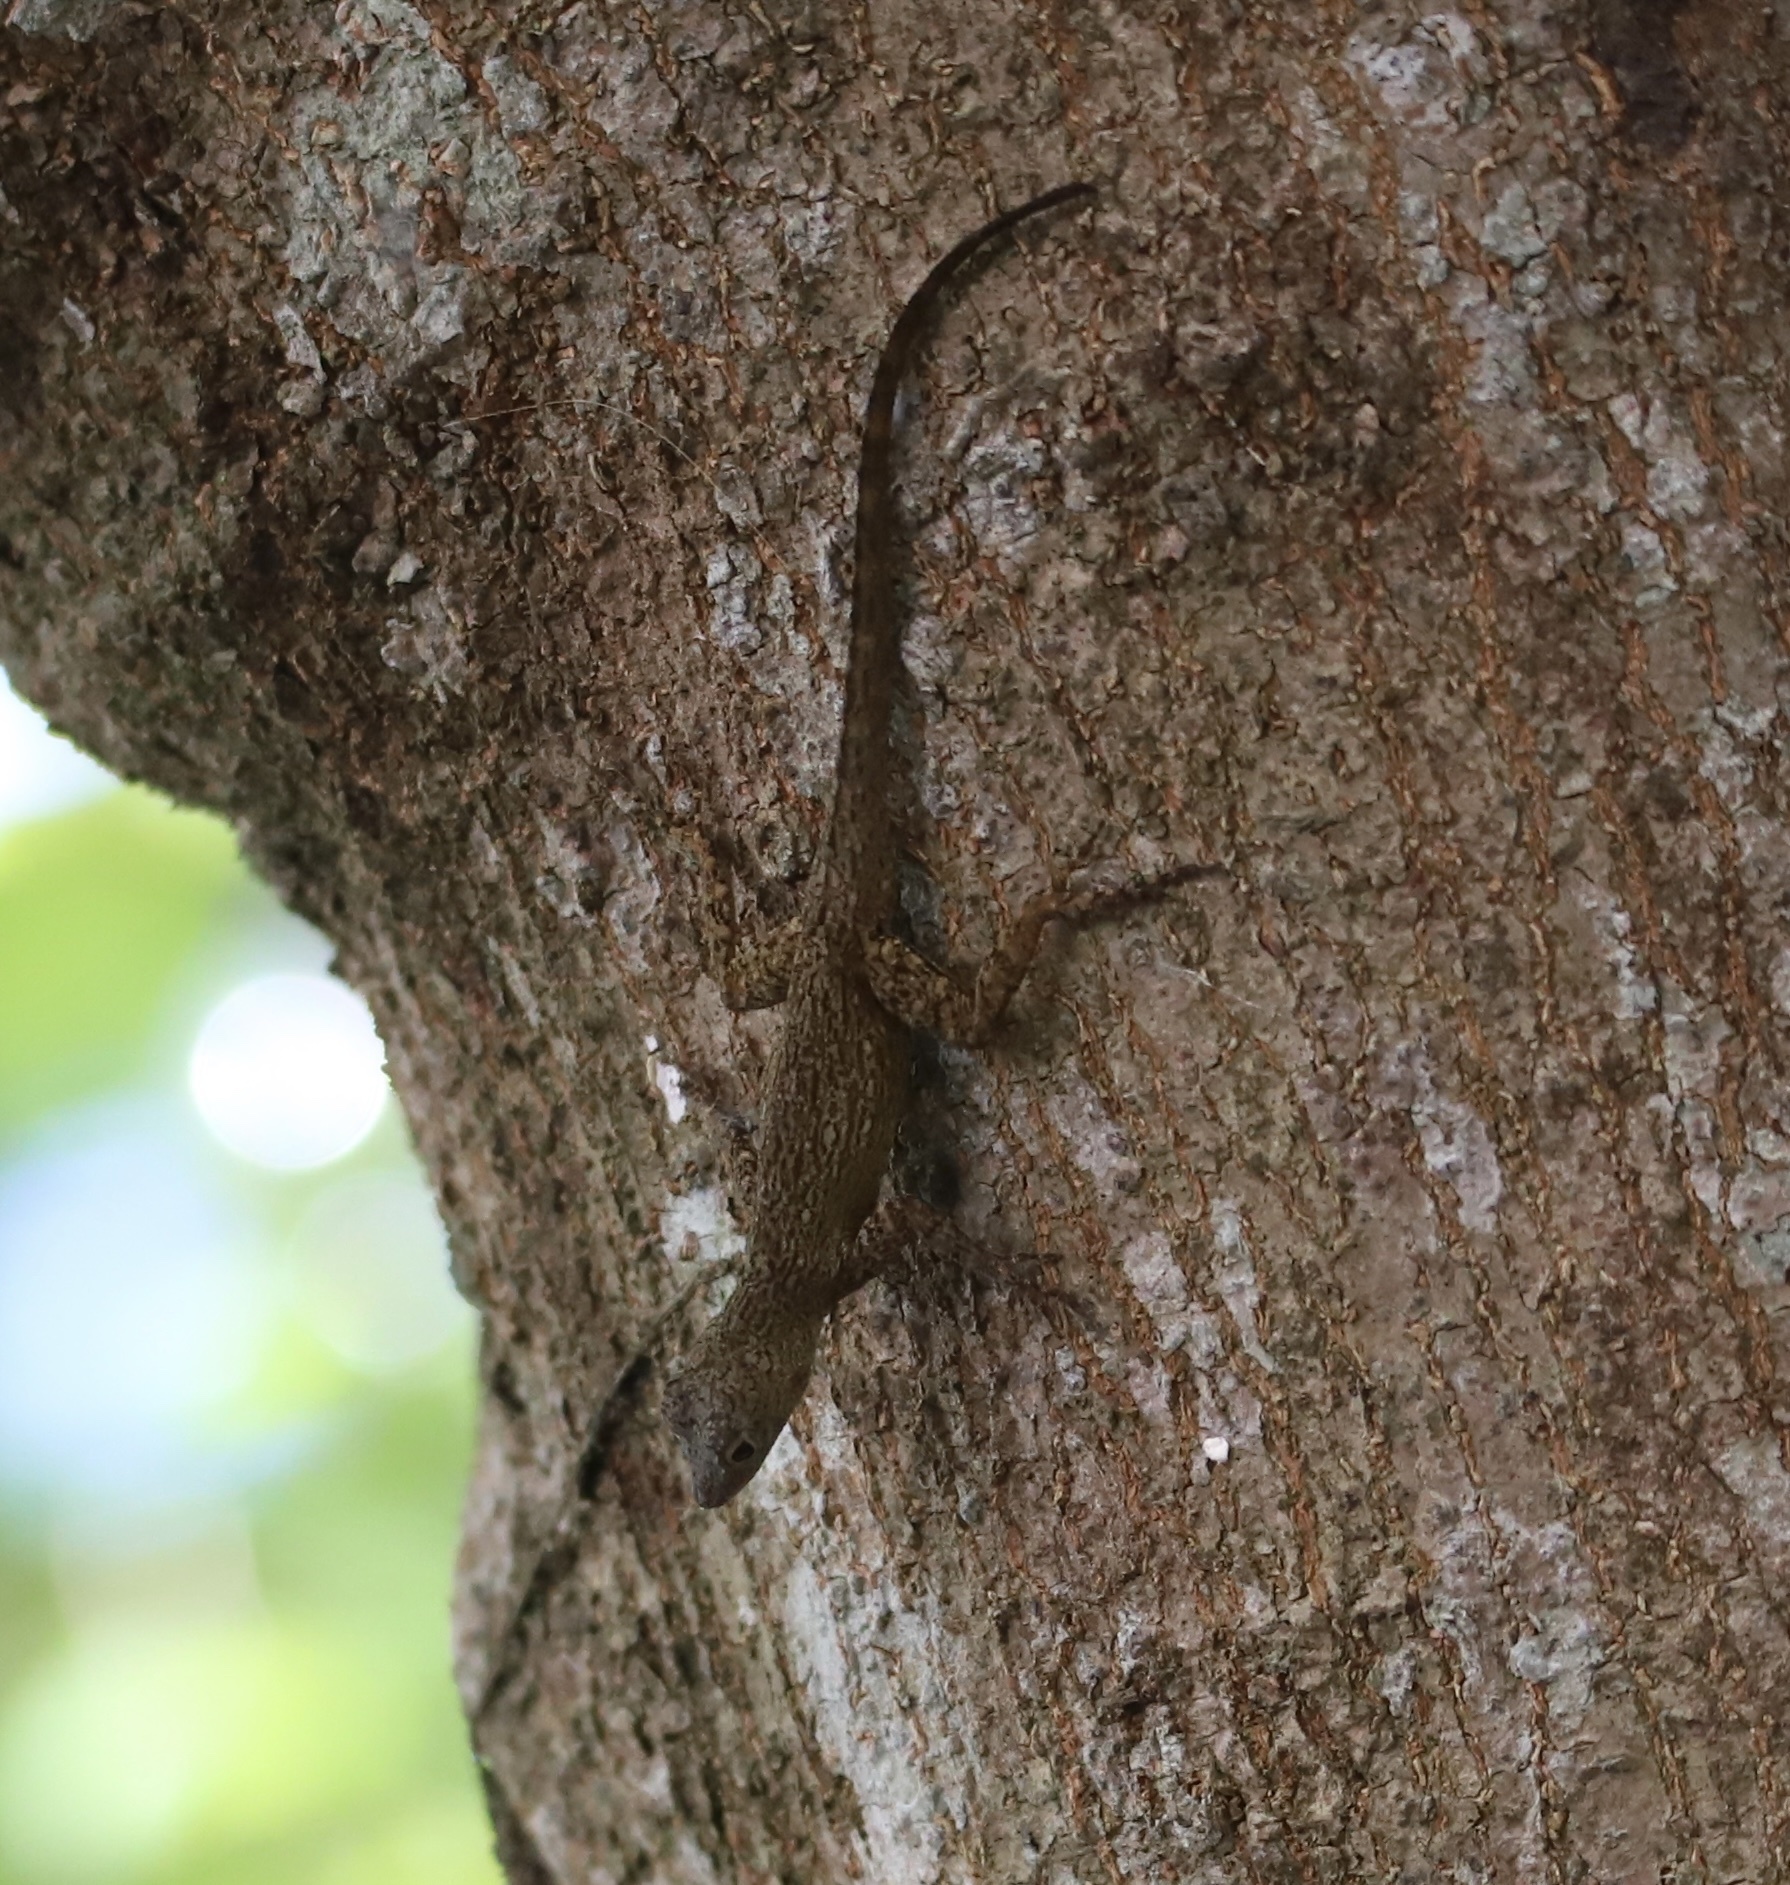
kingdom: Animalia
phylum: Chordata
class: Squamata
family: Dactyloidae
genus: Anolis
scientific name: Anolis distichus
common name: Bark anole
